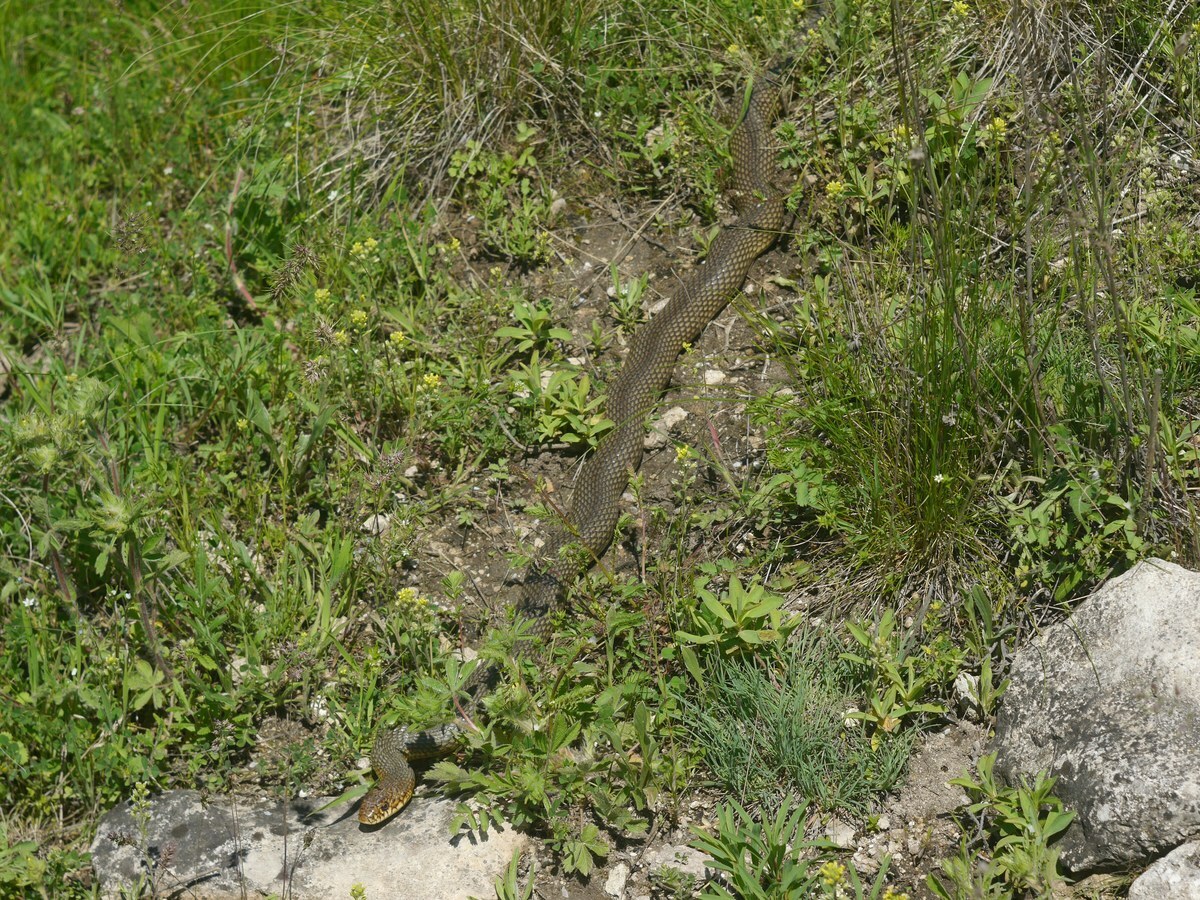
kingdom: Animalia
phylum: Chordata
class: Squamata
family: Colubridae
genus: Dolichophis
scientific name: Dolichophis caspius
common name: Large whip snake
